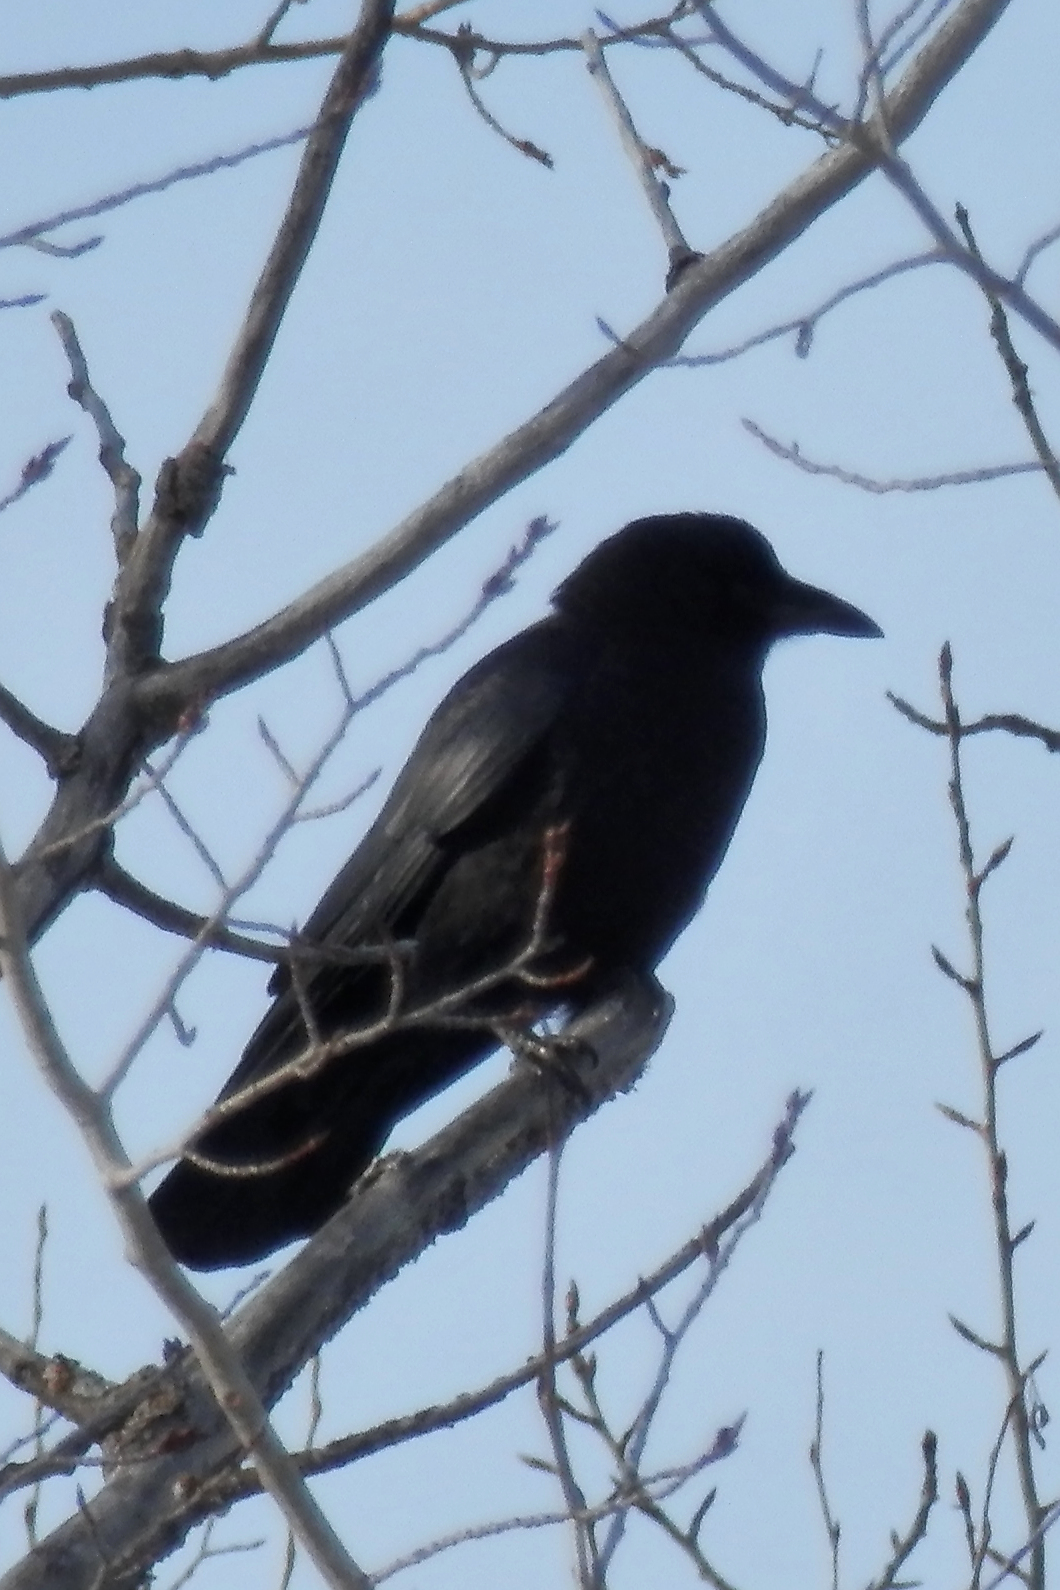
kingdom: Animalia
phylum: Chordata
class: Aves
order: Passeriformes
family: Corvidae
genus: Corvus
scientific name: Corvus brachyrhynchos
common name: American crow
